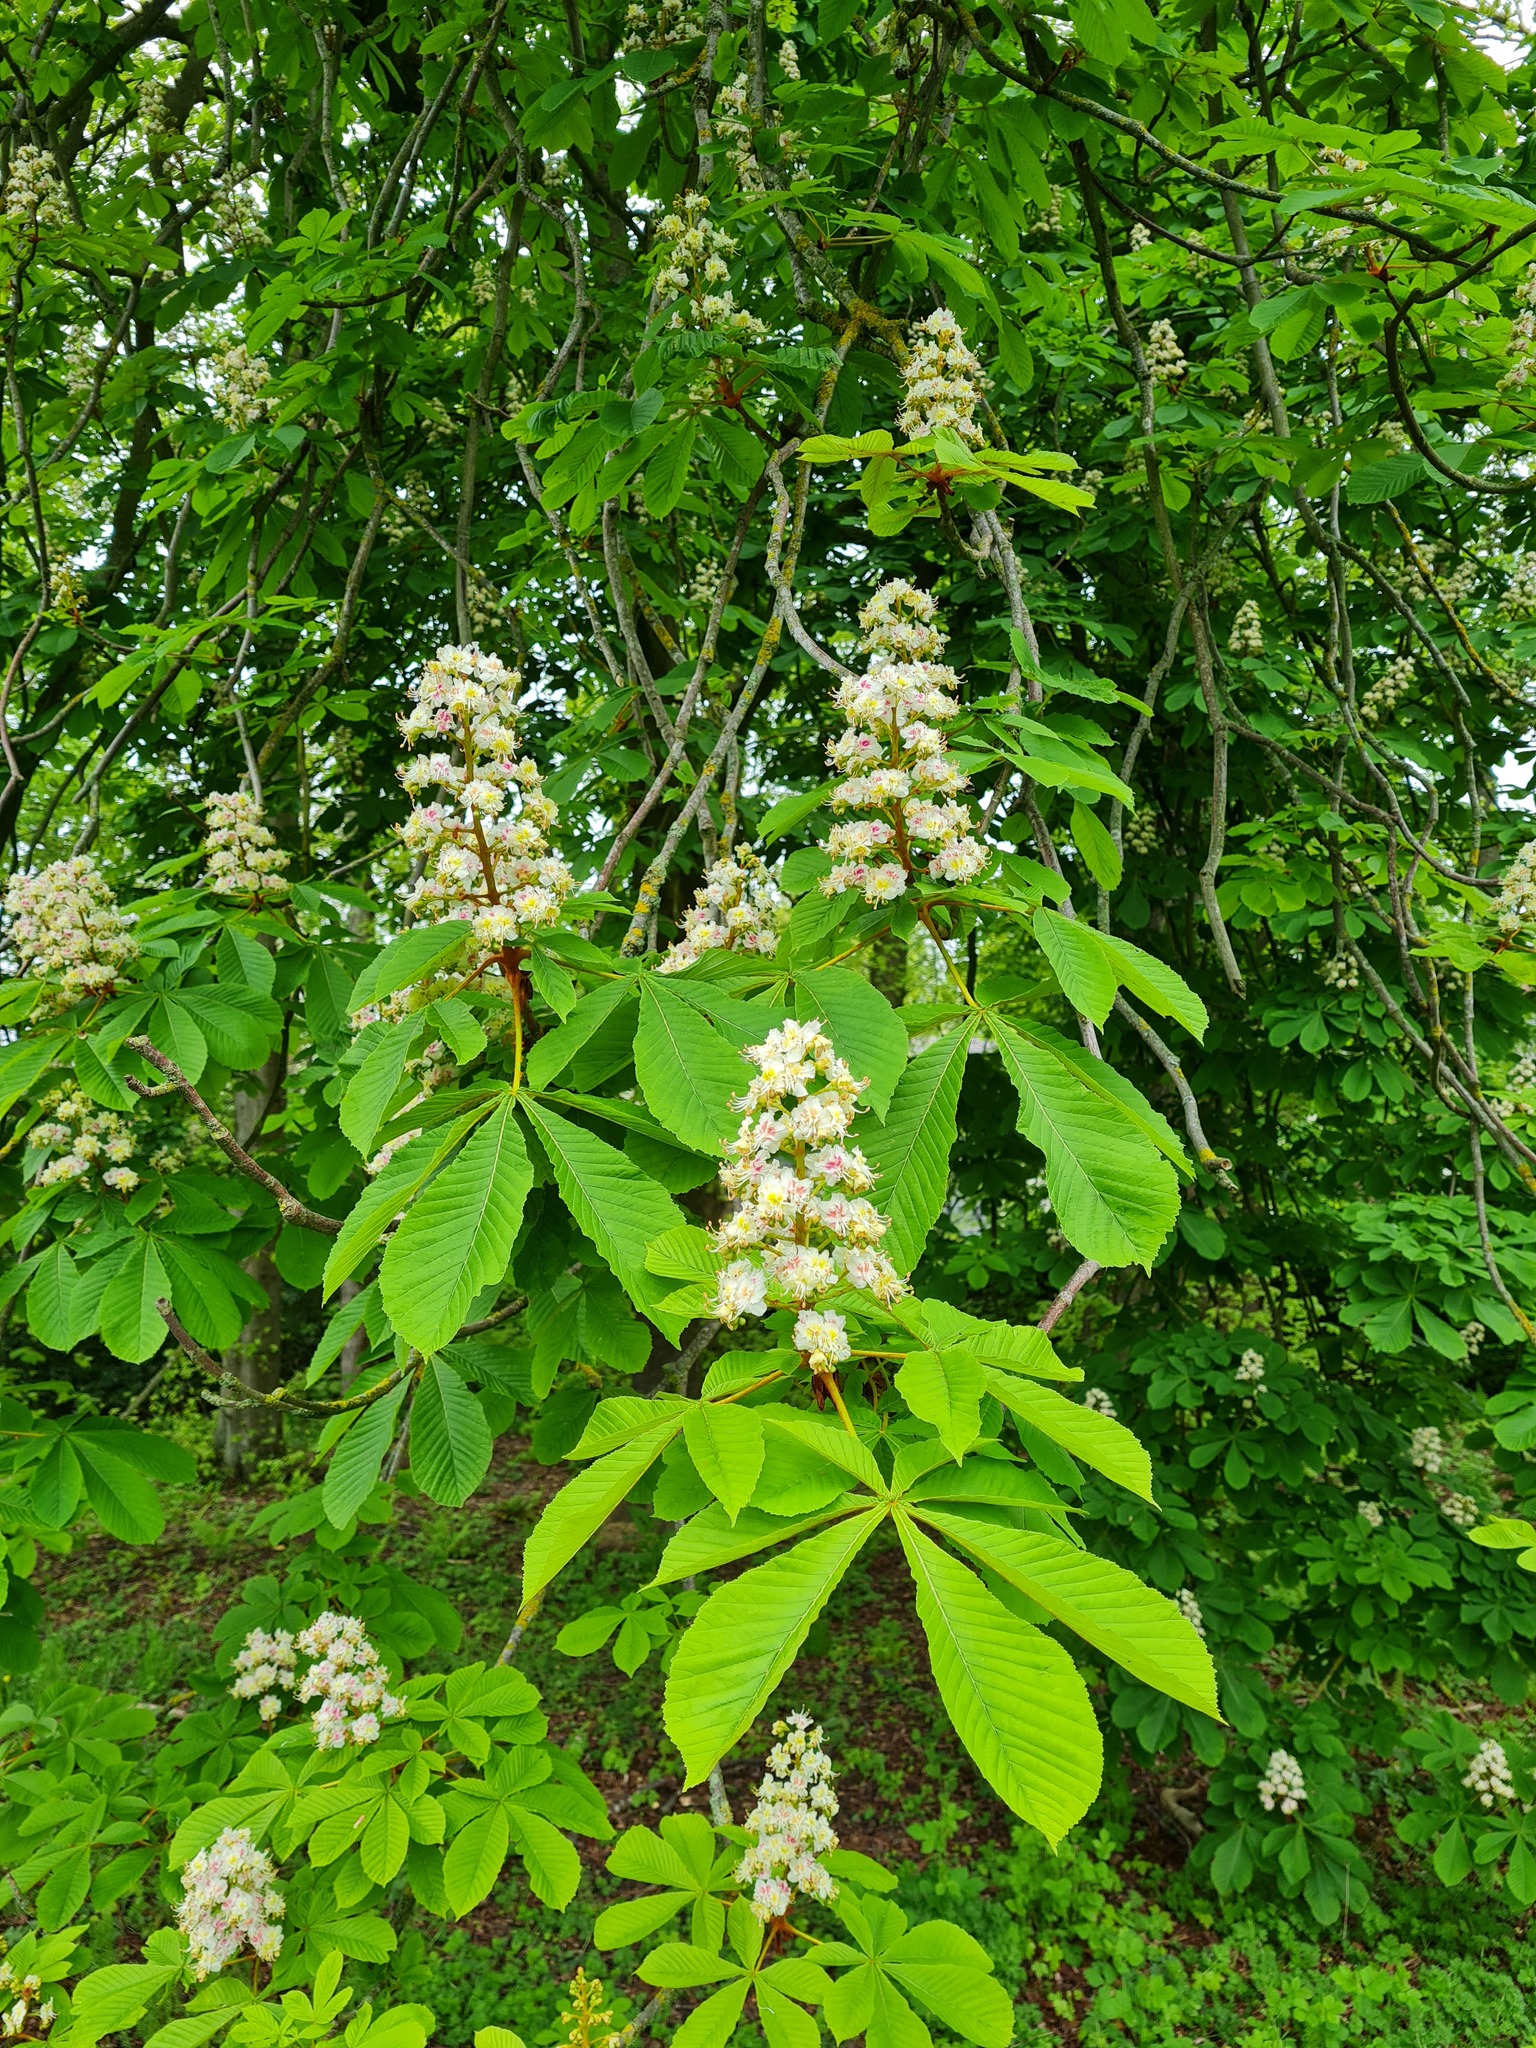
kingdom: Plantae
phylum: Tracheophyta
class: Magnoliopsida
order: Sapindales
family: Sapindaceae
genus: Aesculus
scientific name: Aesculus hippocastanum
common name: Horse-chestnut
